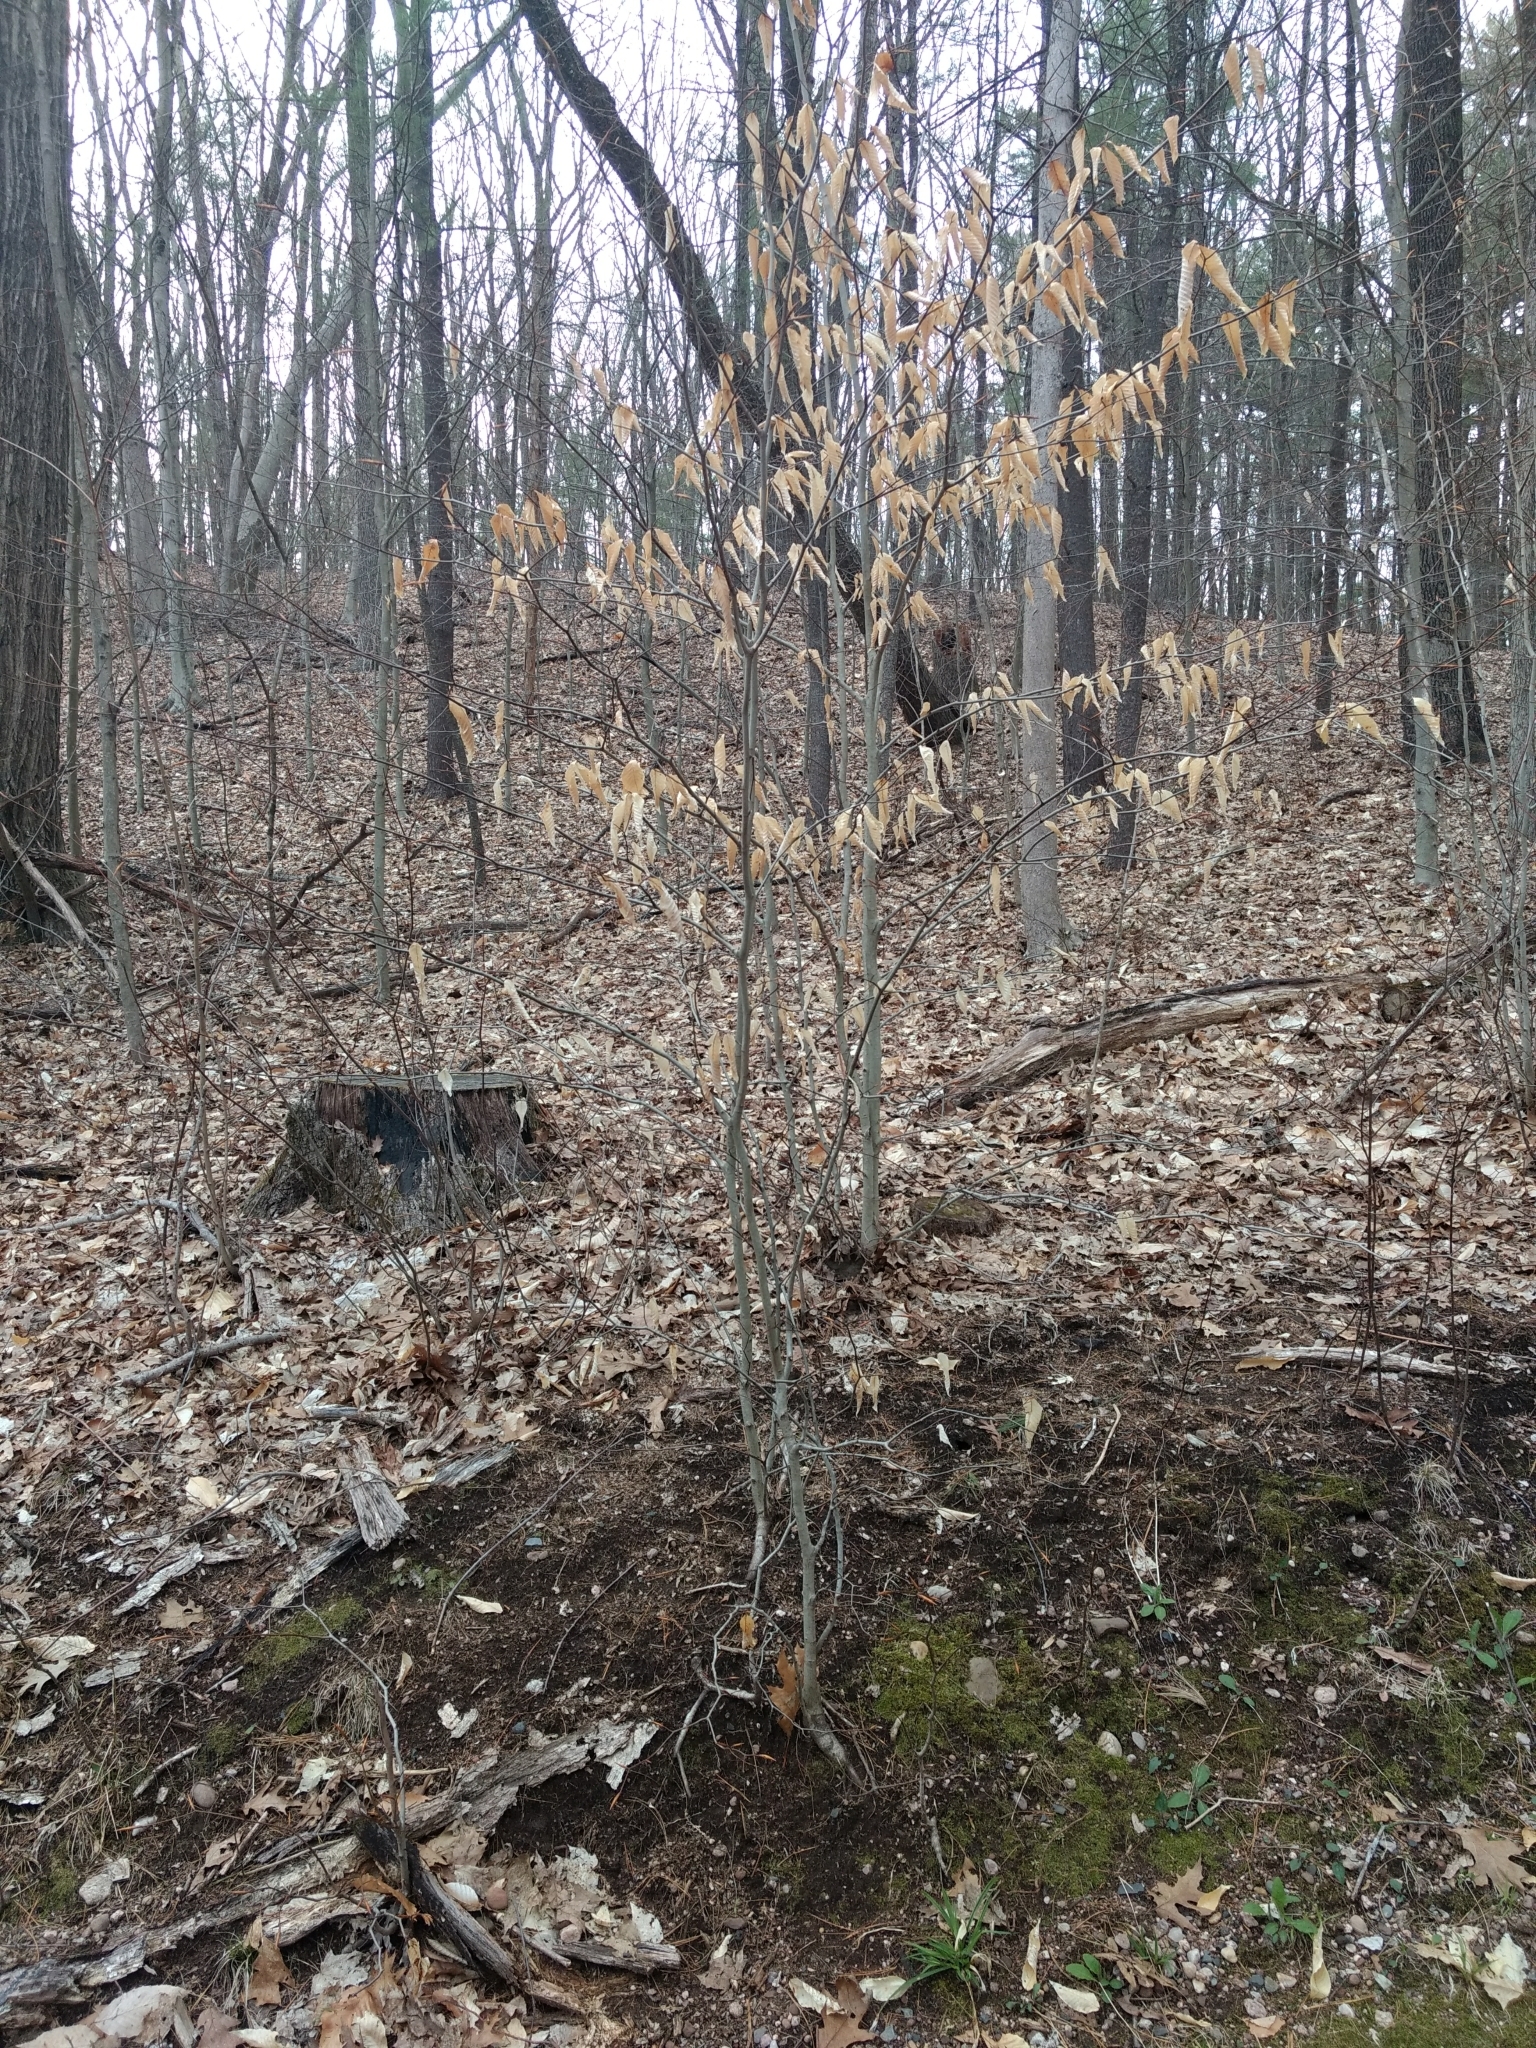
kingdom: Plantae
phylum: Tracheophyta
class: Magnoliopsida
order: Fagales
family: Fagaceae
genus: Fagus
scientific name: Fagus grandifolia
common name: American beech
